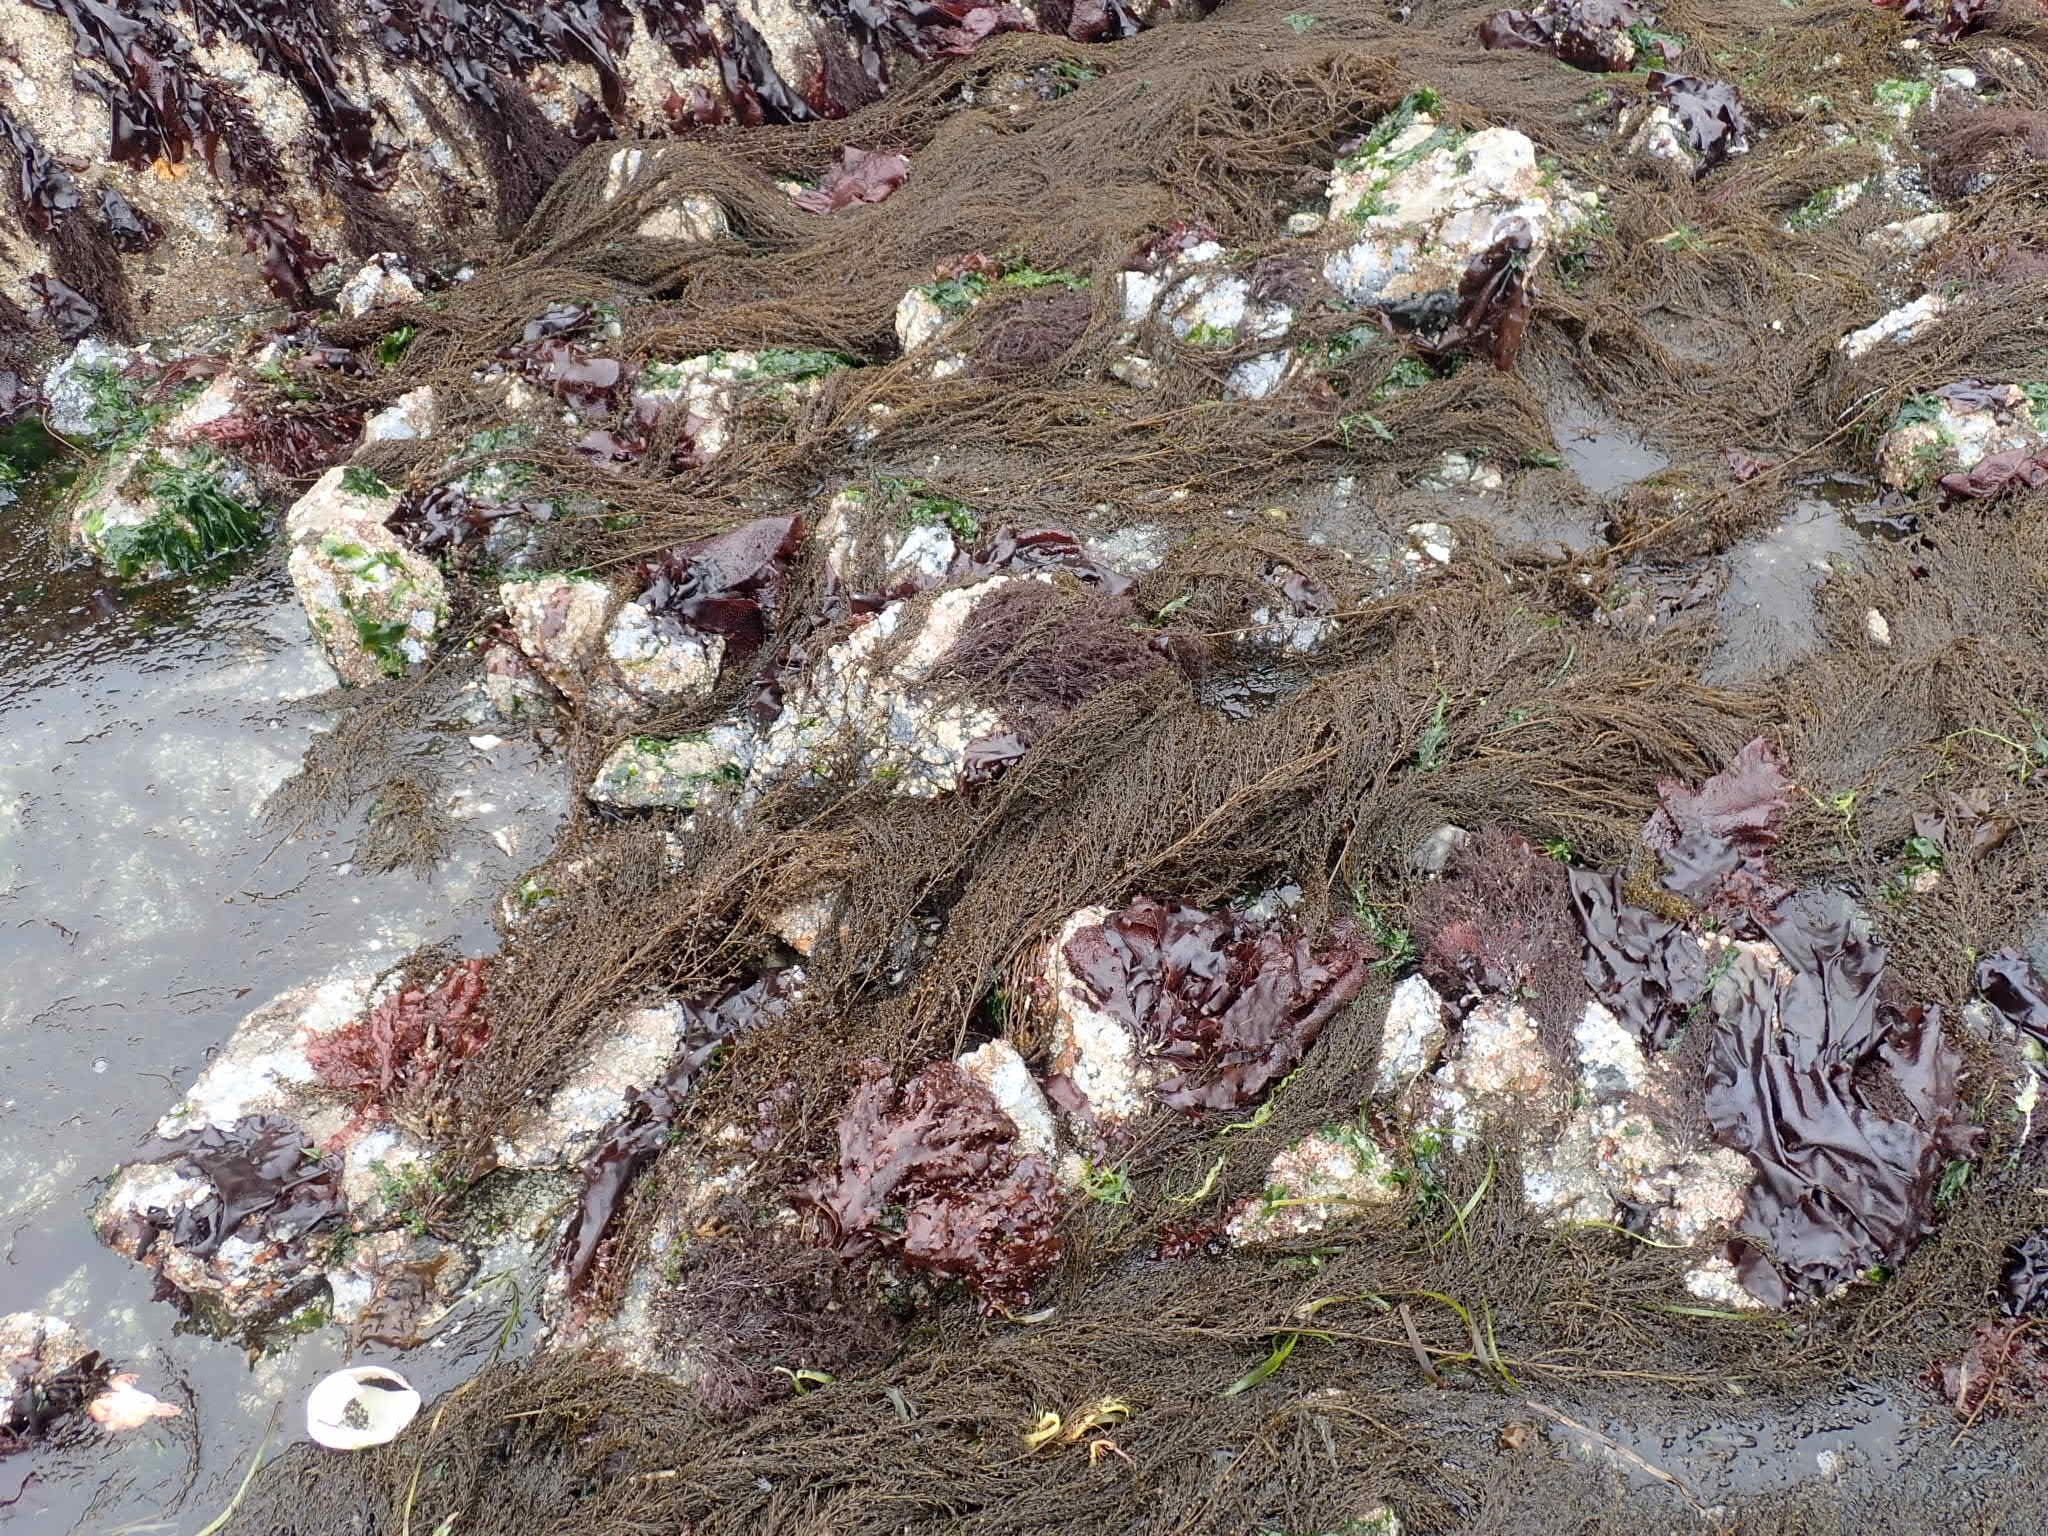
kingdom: Chromista
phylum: Ochrophyta
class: Phaeophyceae
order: Fucales
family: Sargassaceae
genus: Sargassum
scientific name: Sargassum muticum
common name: Japweed
